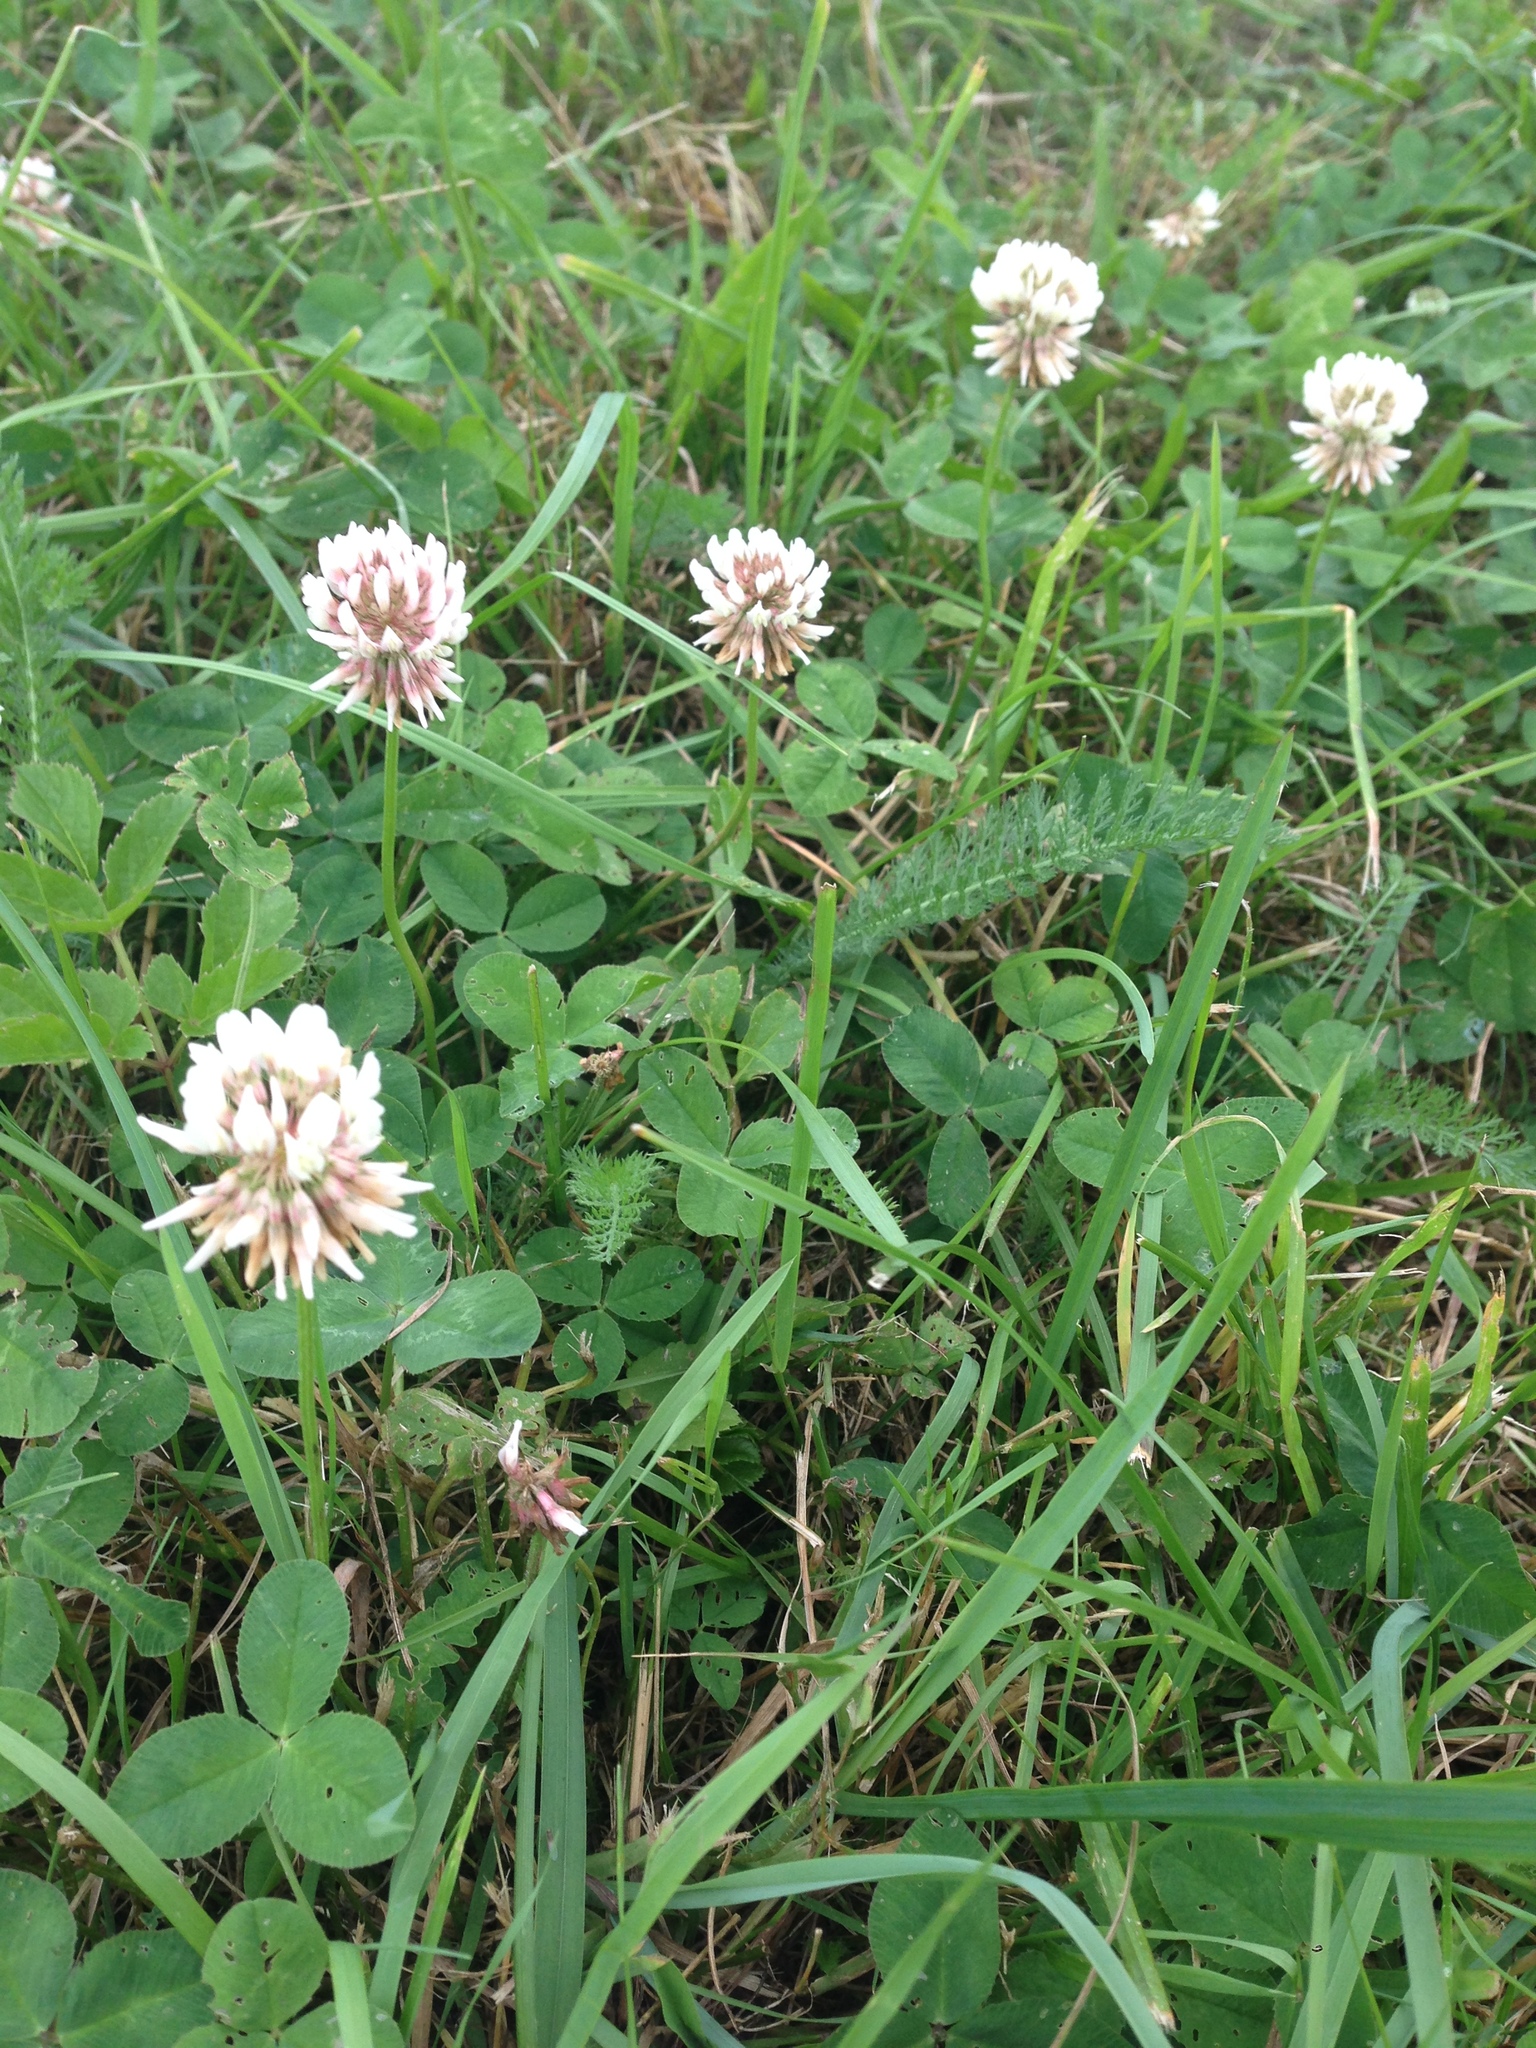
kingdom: Plantae
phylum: Tracheophyta
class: Magnoliopsida
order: Fabales
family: Fabaceae
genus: Trifolium
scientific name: Trifolium repens
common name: White clover
